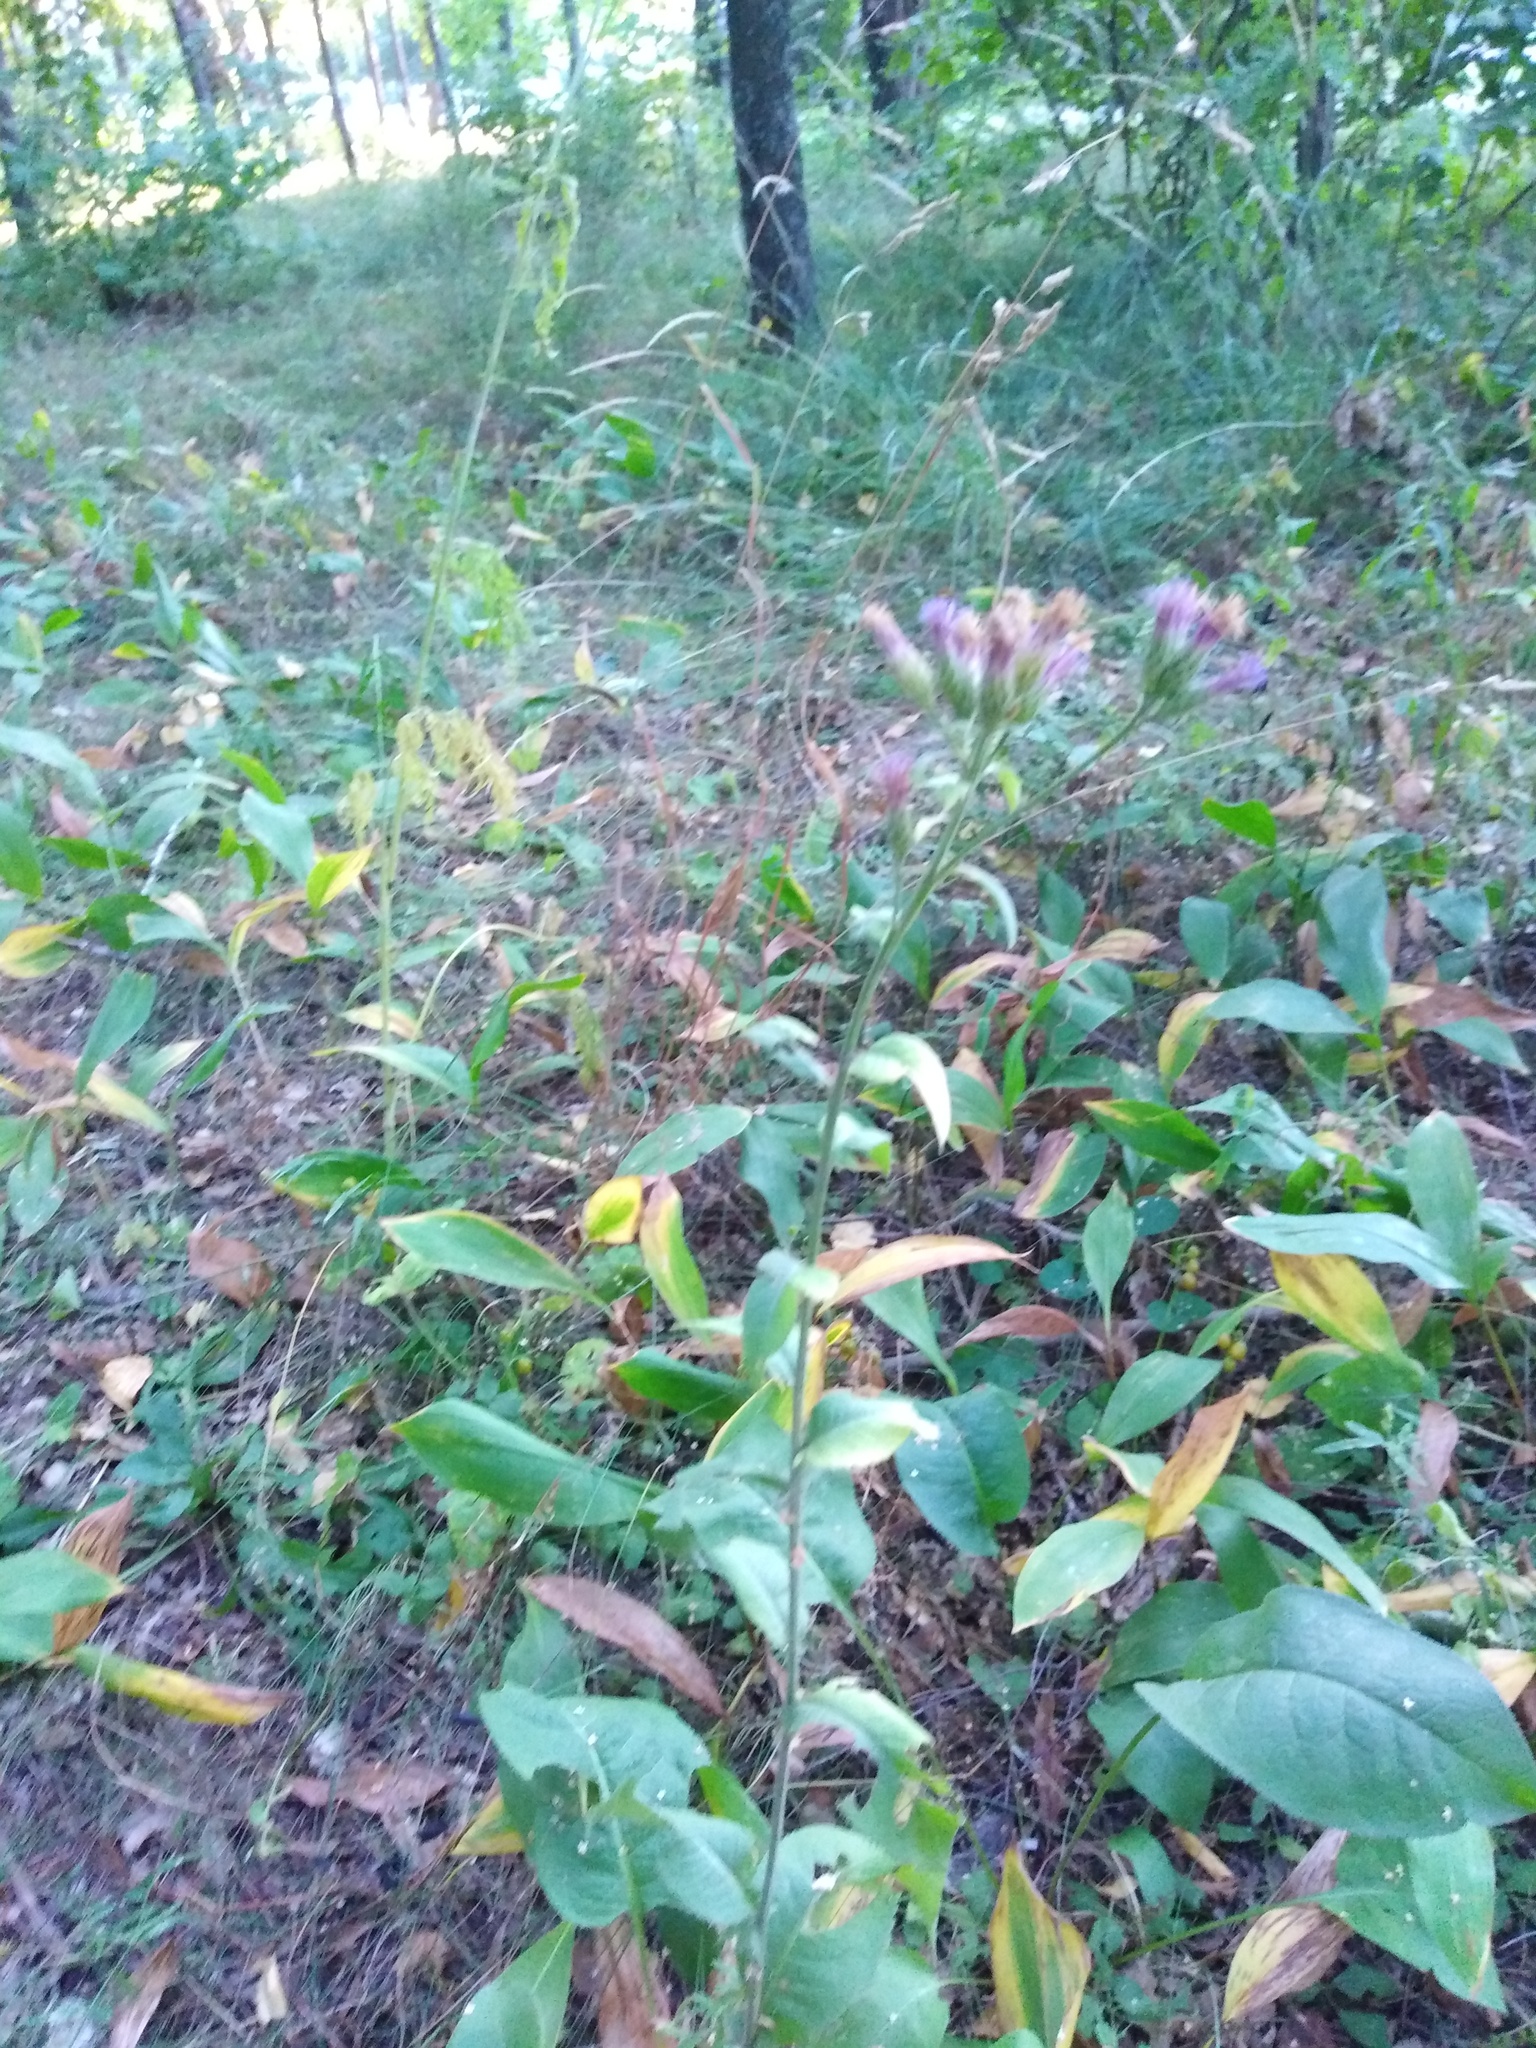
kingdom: Plantae
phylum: Tracheophyta
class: Magnoliopsida
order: Asterales
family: Asteraceae
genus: Serratula
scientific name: Serratula tinctoria
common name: Saw-wort
